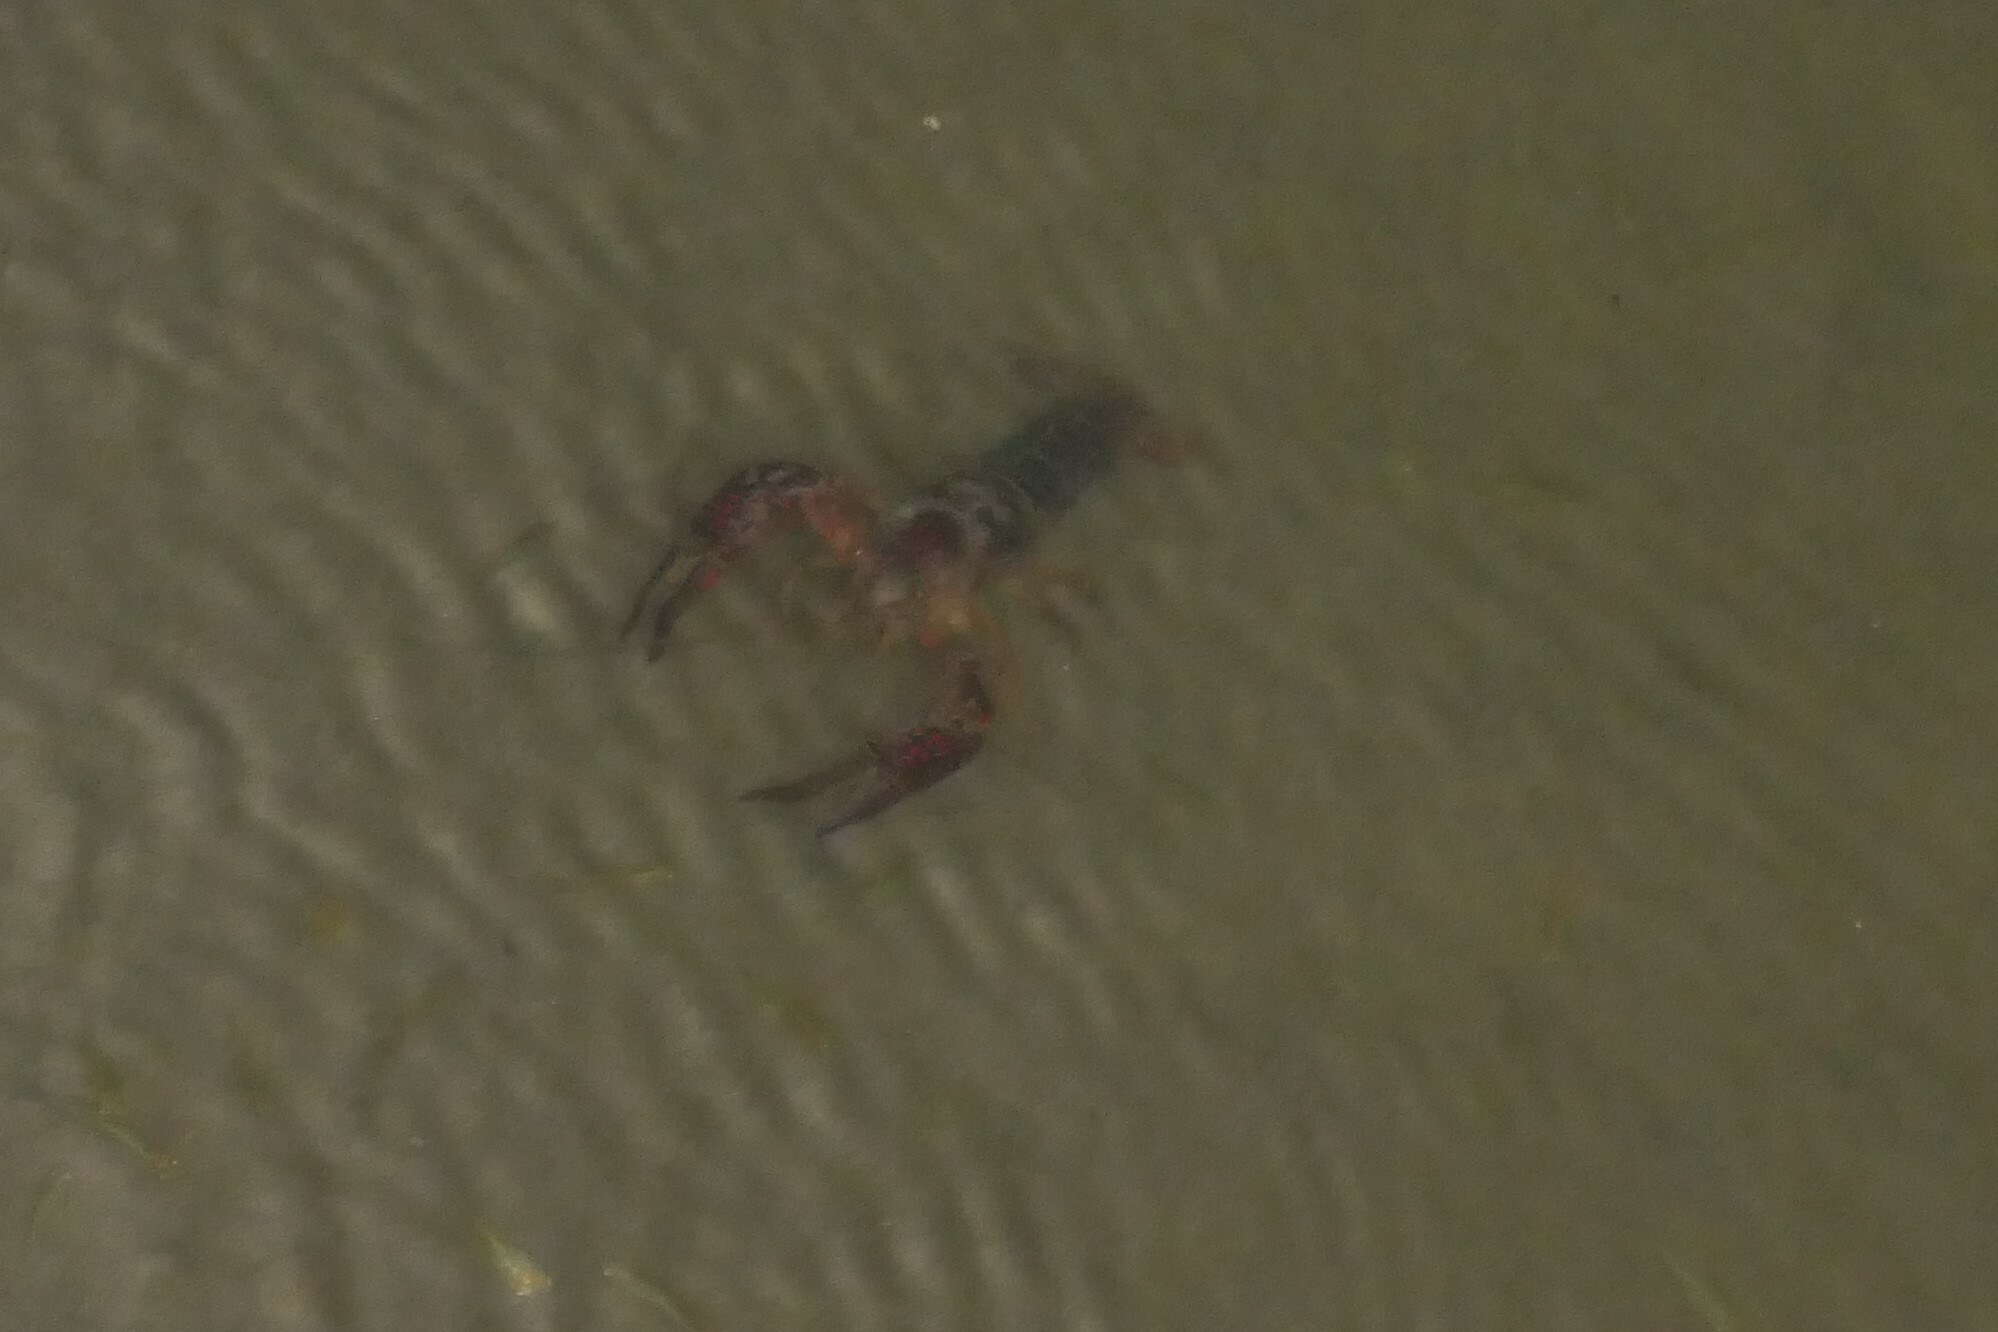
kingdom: Animalia
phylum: Arthropoda
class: Malacostraca
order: Decapoda
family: Cambaridae
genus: Procambarus
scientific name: Procambarus clarkii
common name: Red swamp crayfish
